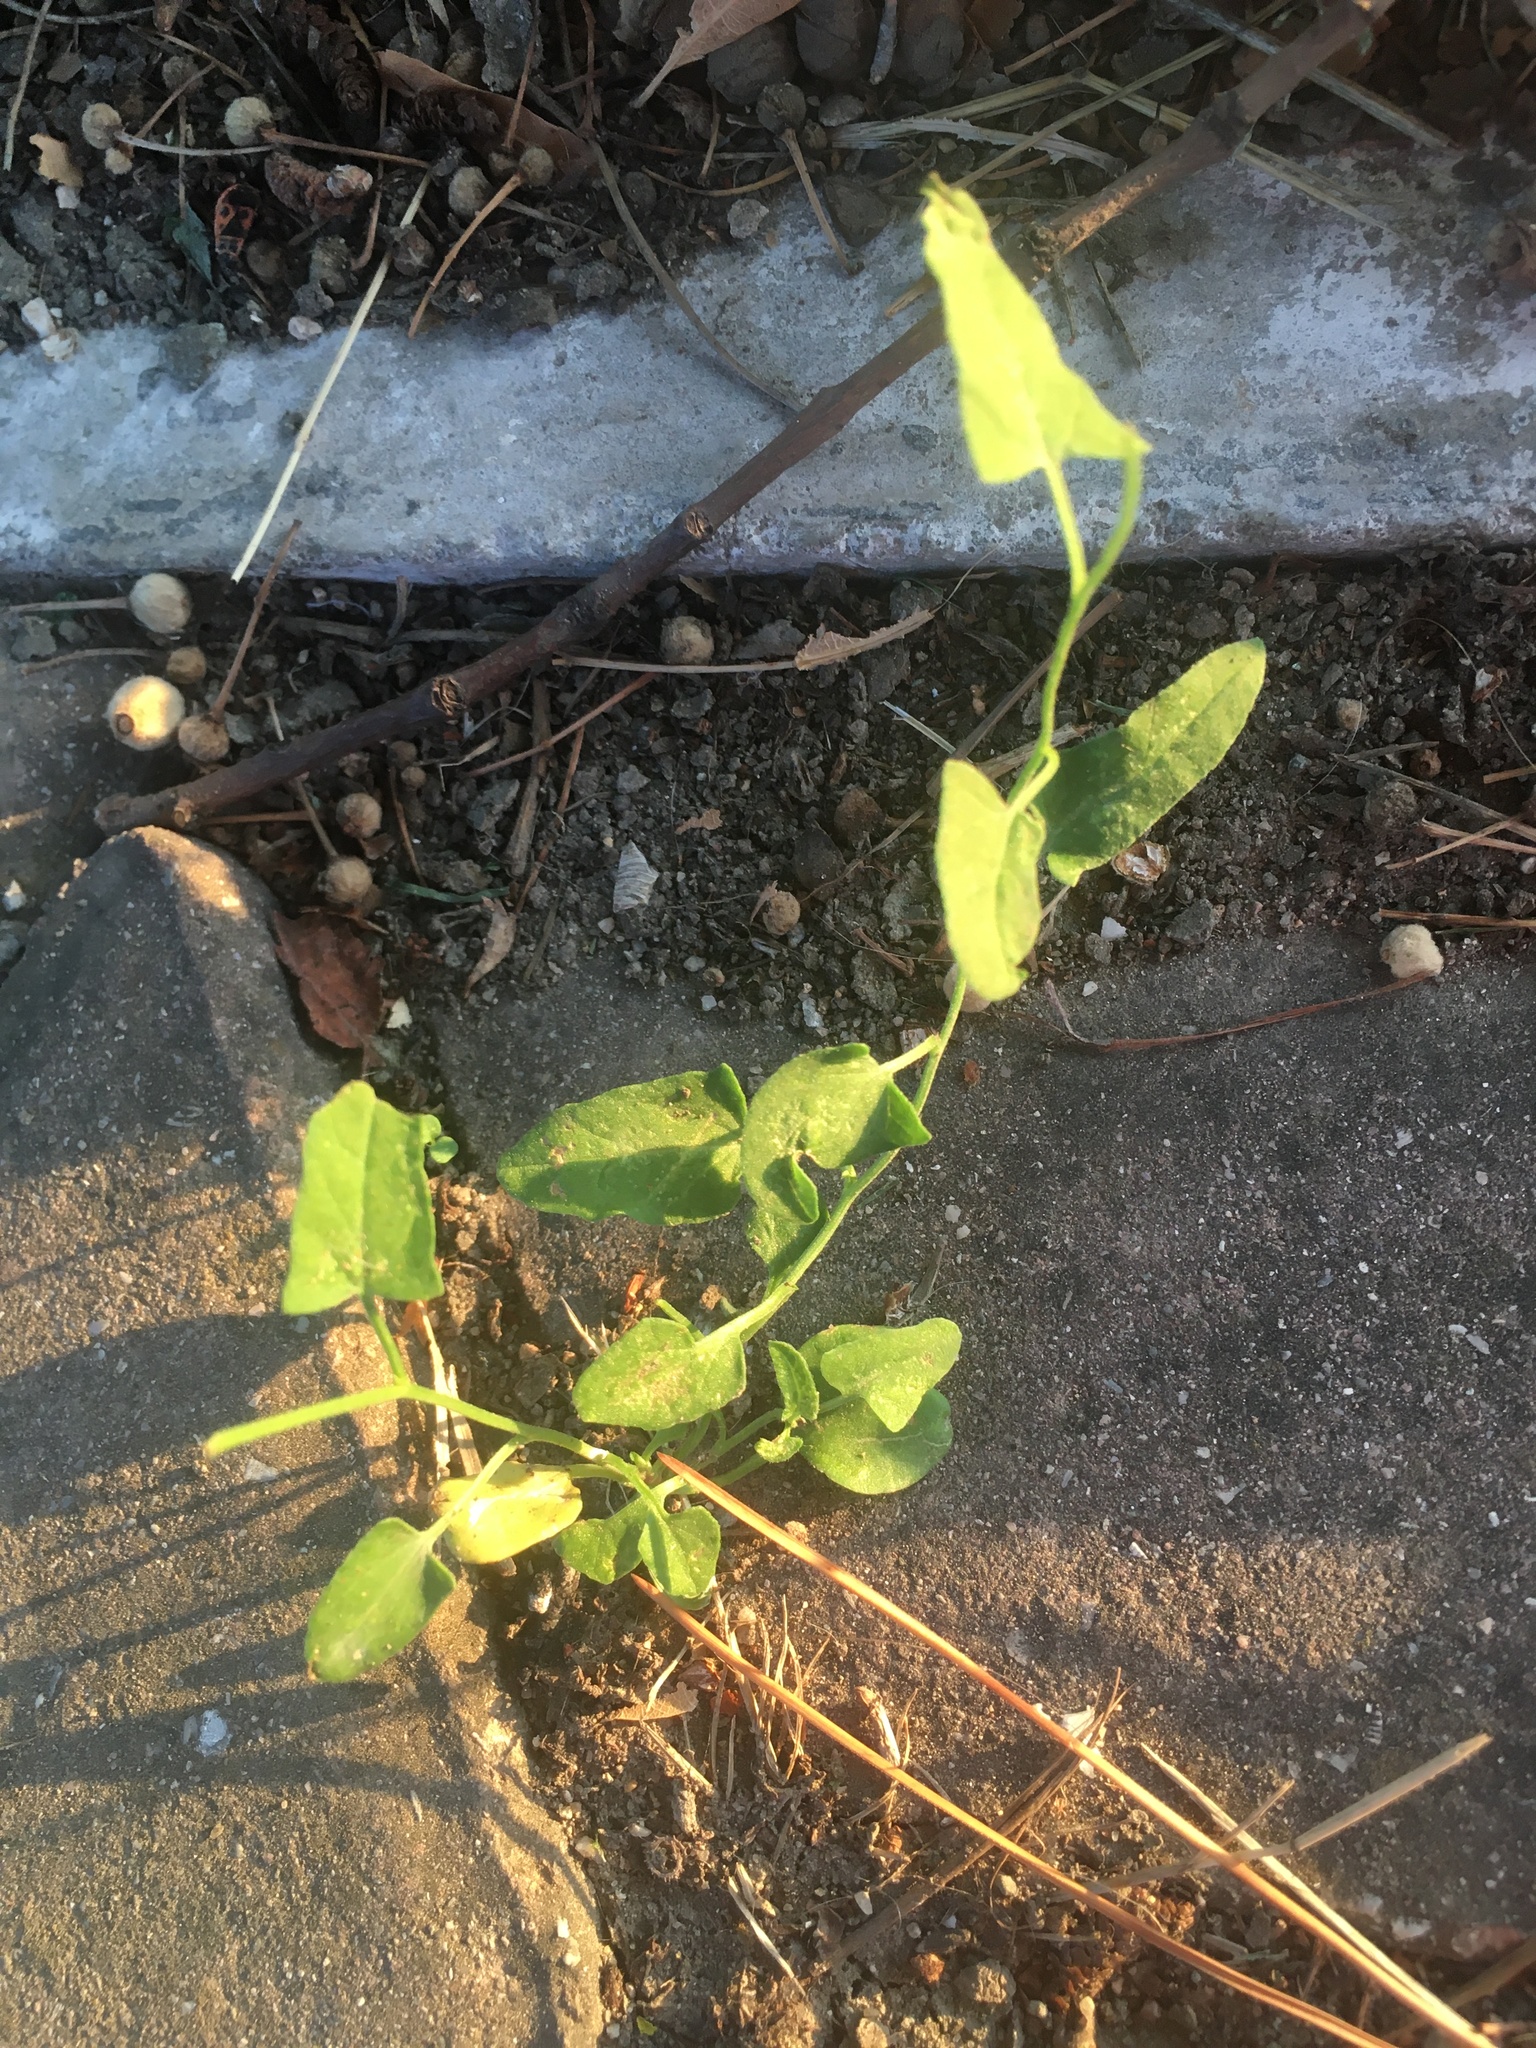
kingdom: Plantae
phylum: Tracheophyta
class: Magnoliopsida
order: Solanales
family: Convolvulaceae
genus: Convolvulus
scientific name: Convolvulus arvensis
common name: Field bindweed
